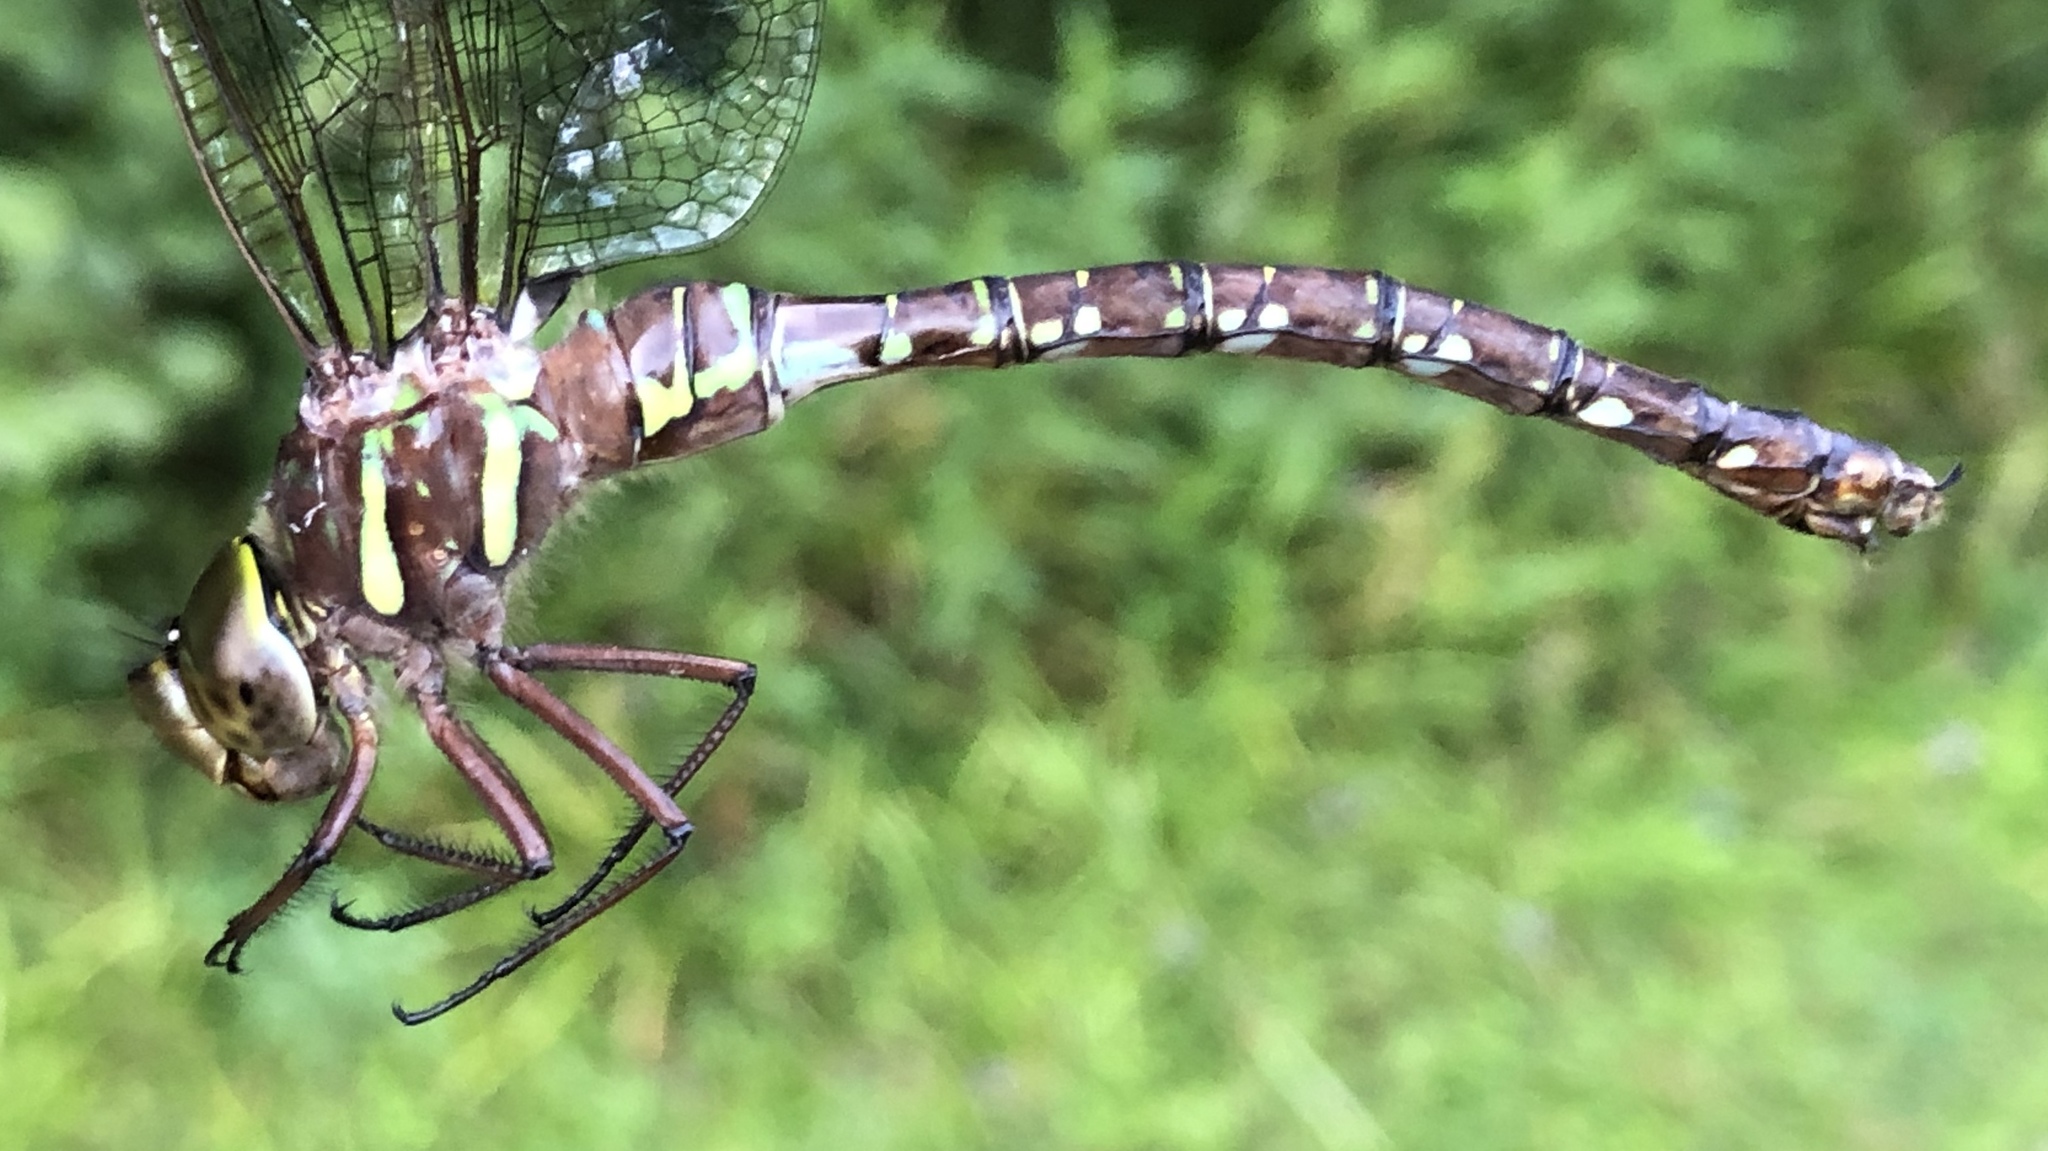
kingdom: Animalia
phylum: Arthropoda
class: Insecta
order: Odonata
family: Aeshnidae
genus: Aeshna
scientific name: Aeshna umbrosa
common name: Shadow darner
